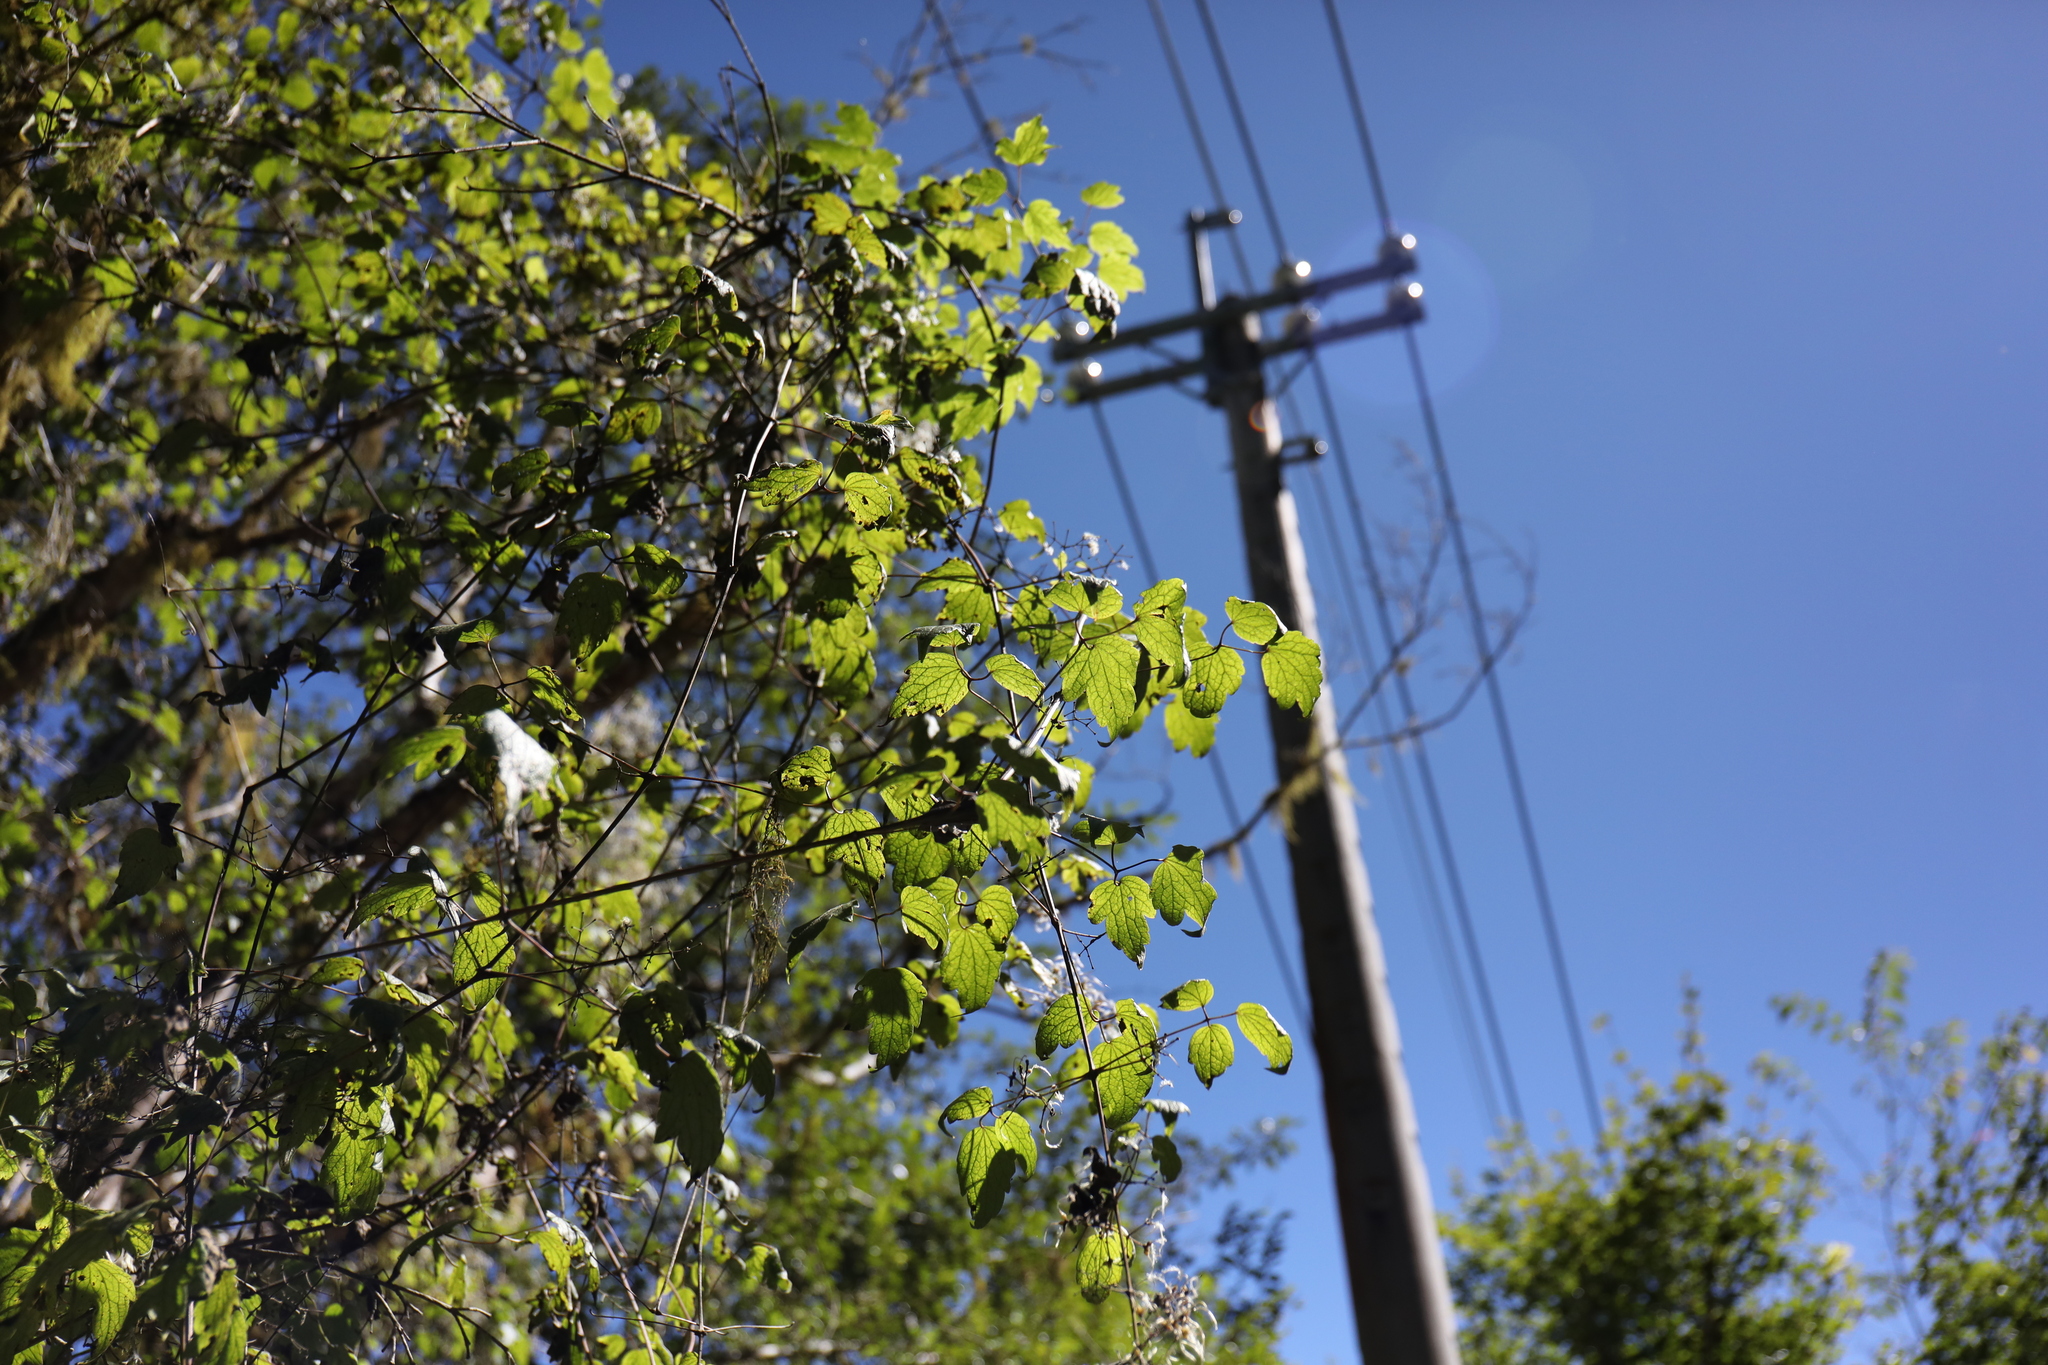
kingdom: Plantae
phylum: Tracheophyta
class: Magnoliopsida
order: Ranunculales
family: Ranunculaceae
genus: Clematis
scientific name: Clematis grata
